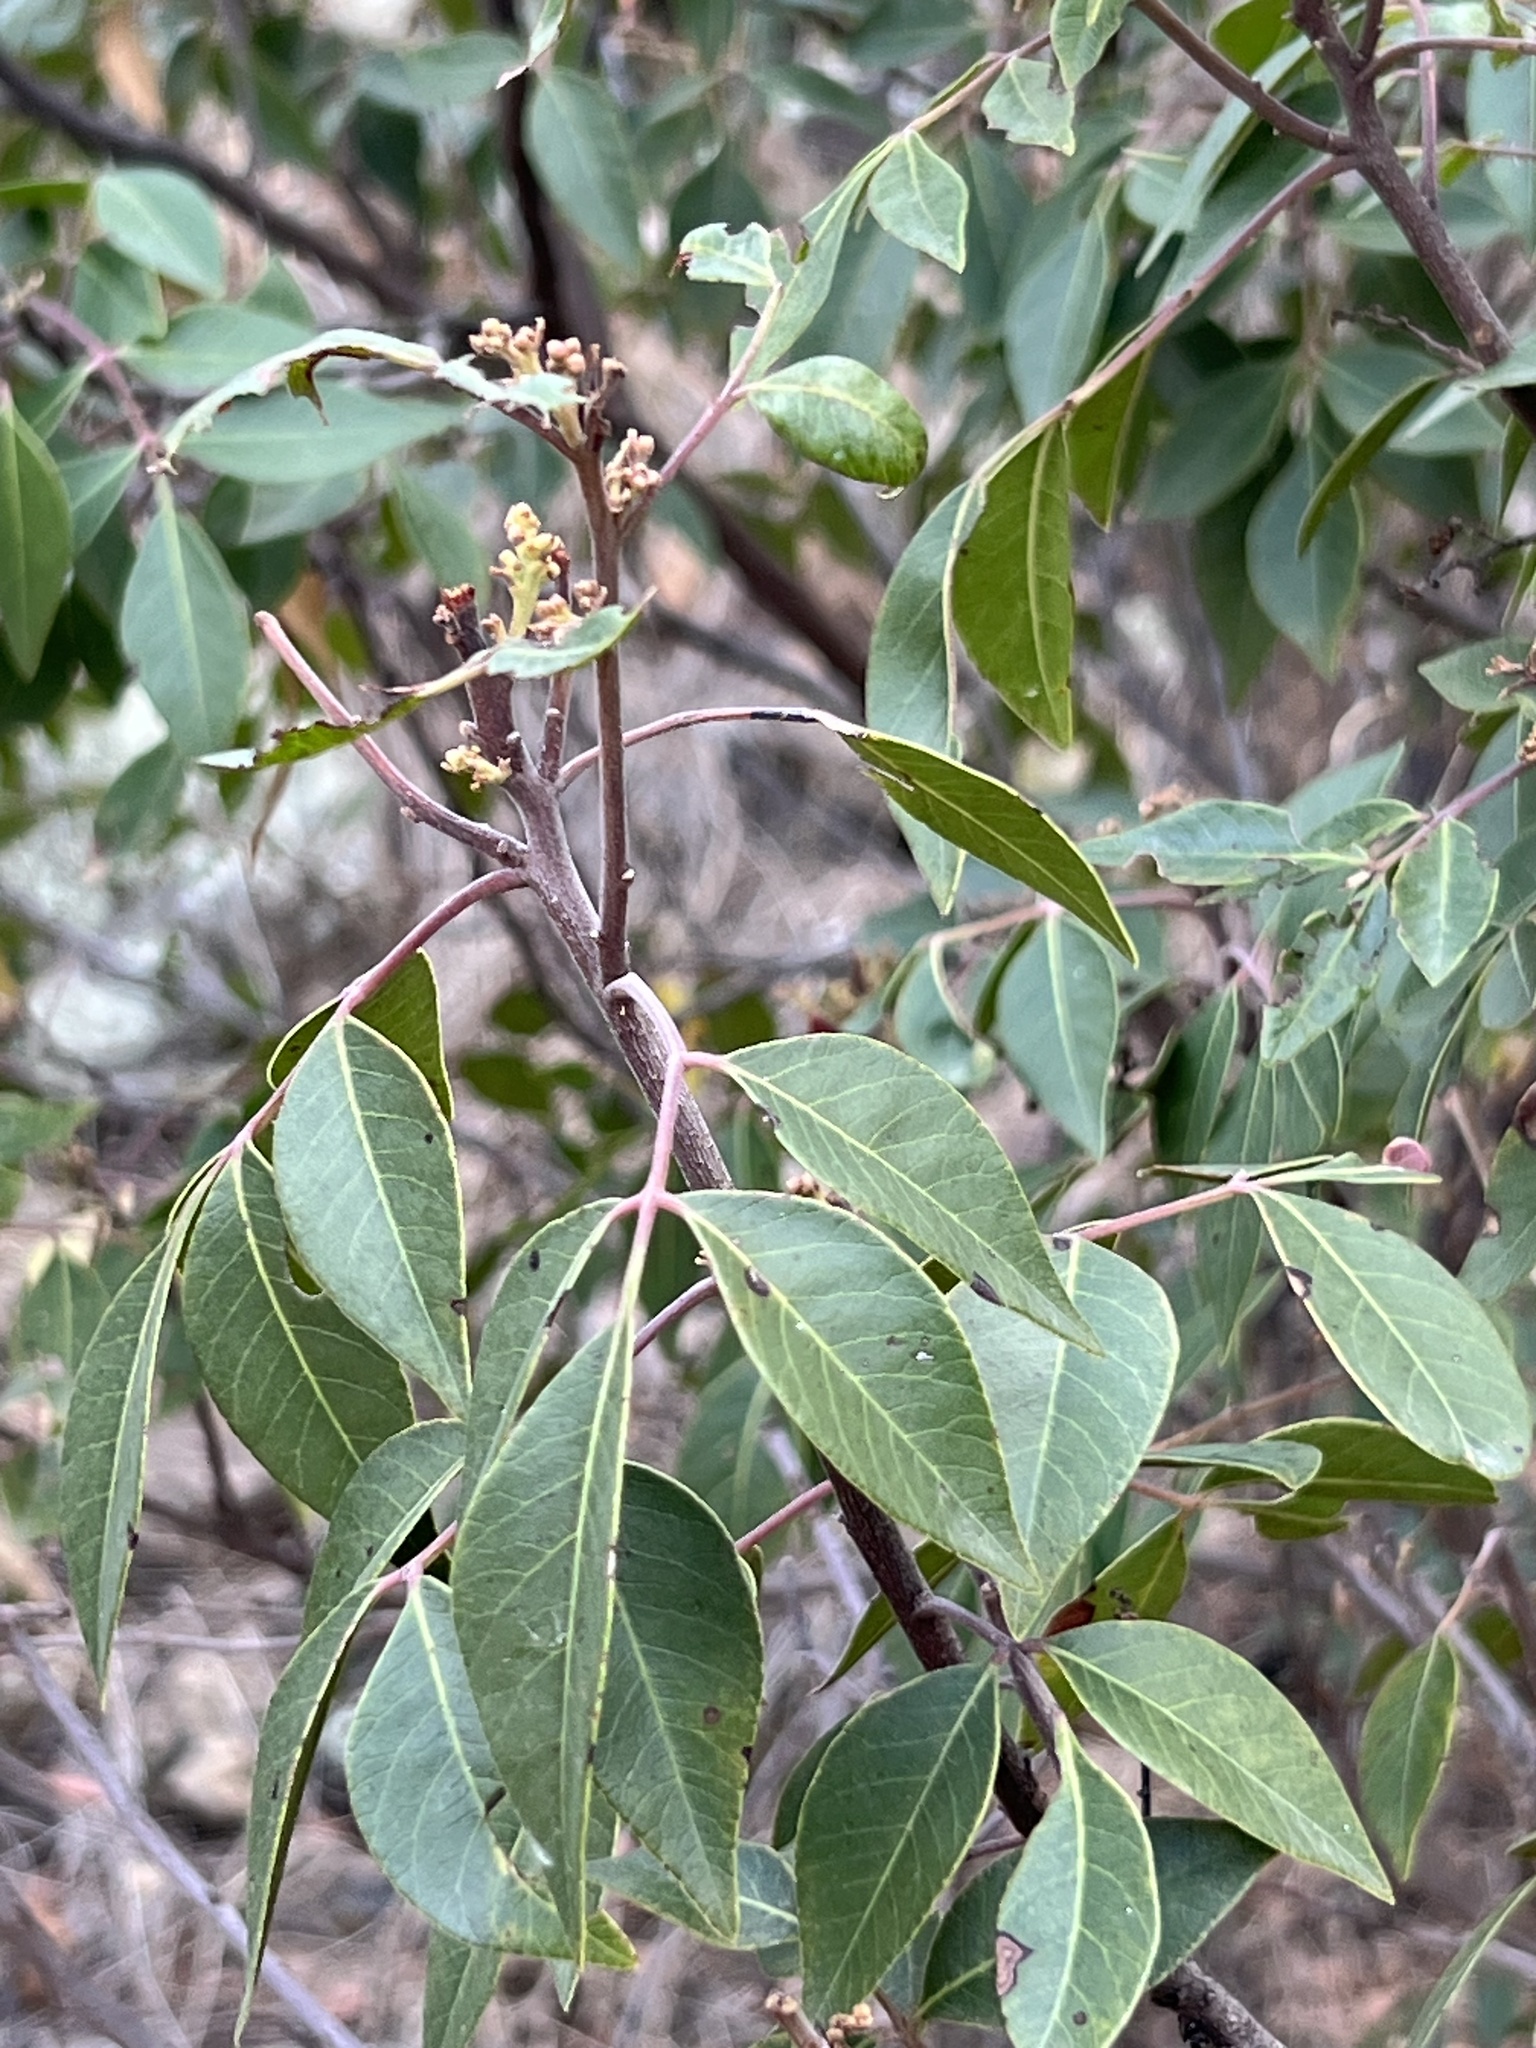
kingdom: Plantae
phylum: Tracheophyta
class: Magnoliopsida
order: Sapindales
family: Anacardiaceae
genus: Rhus
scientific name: Rhus virens
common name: Evergreen sumac
